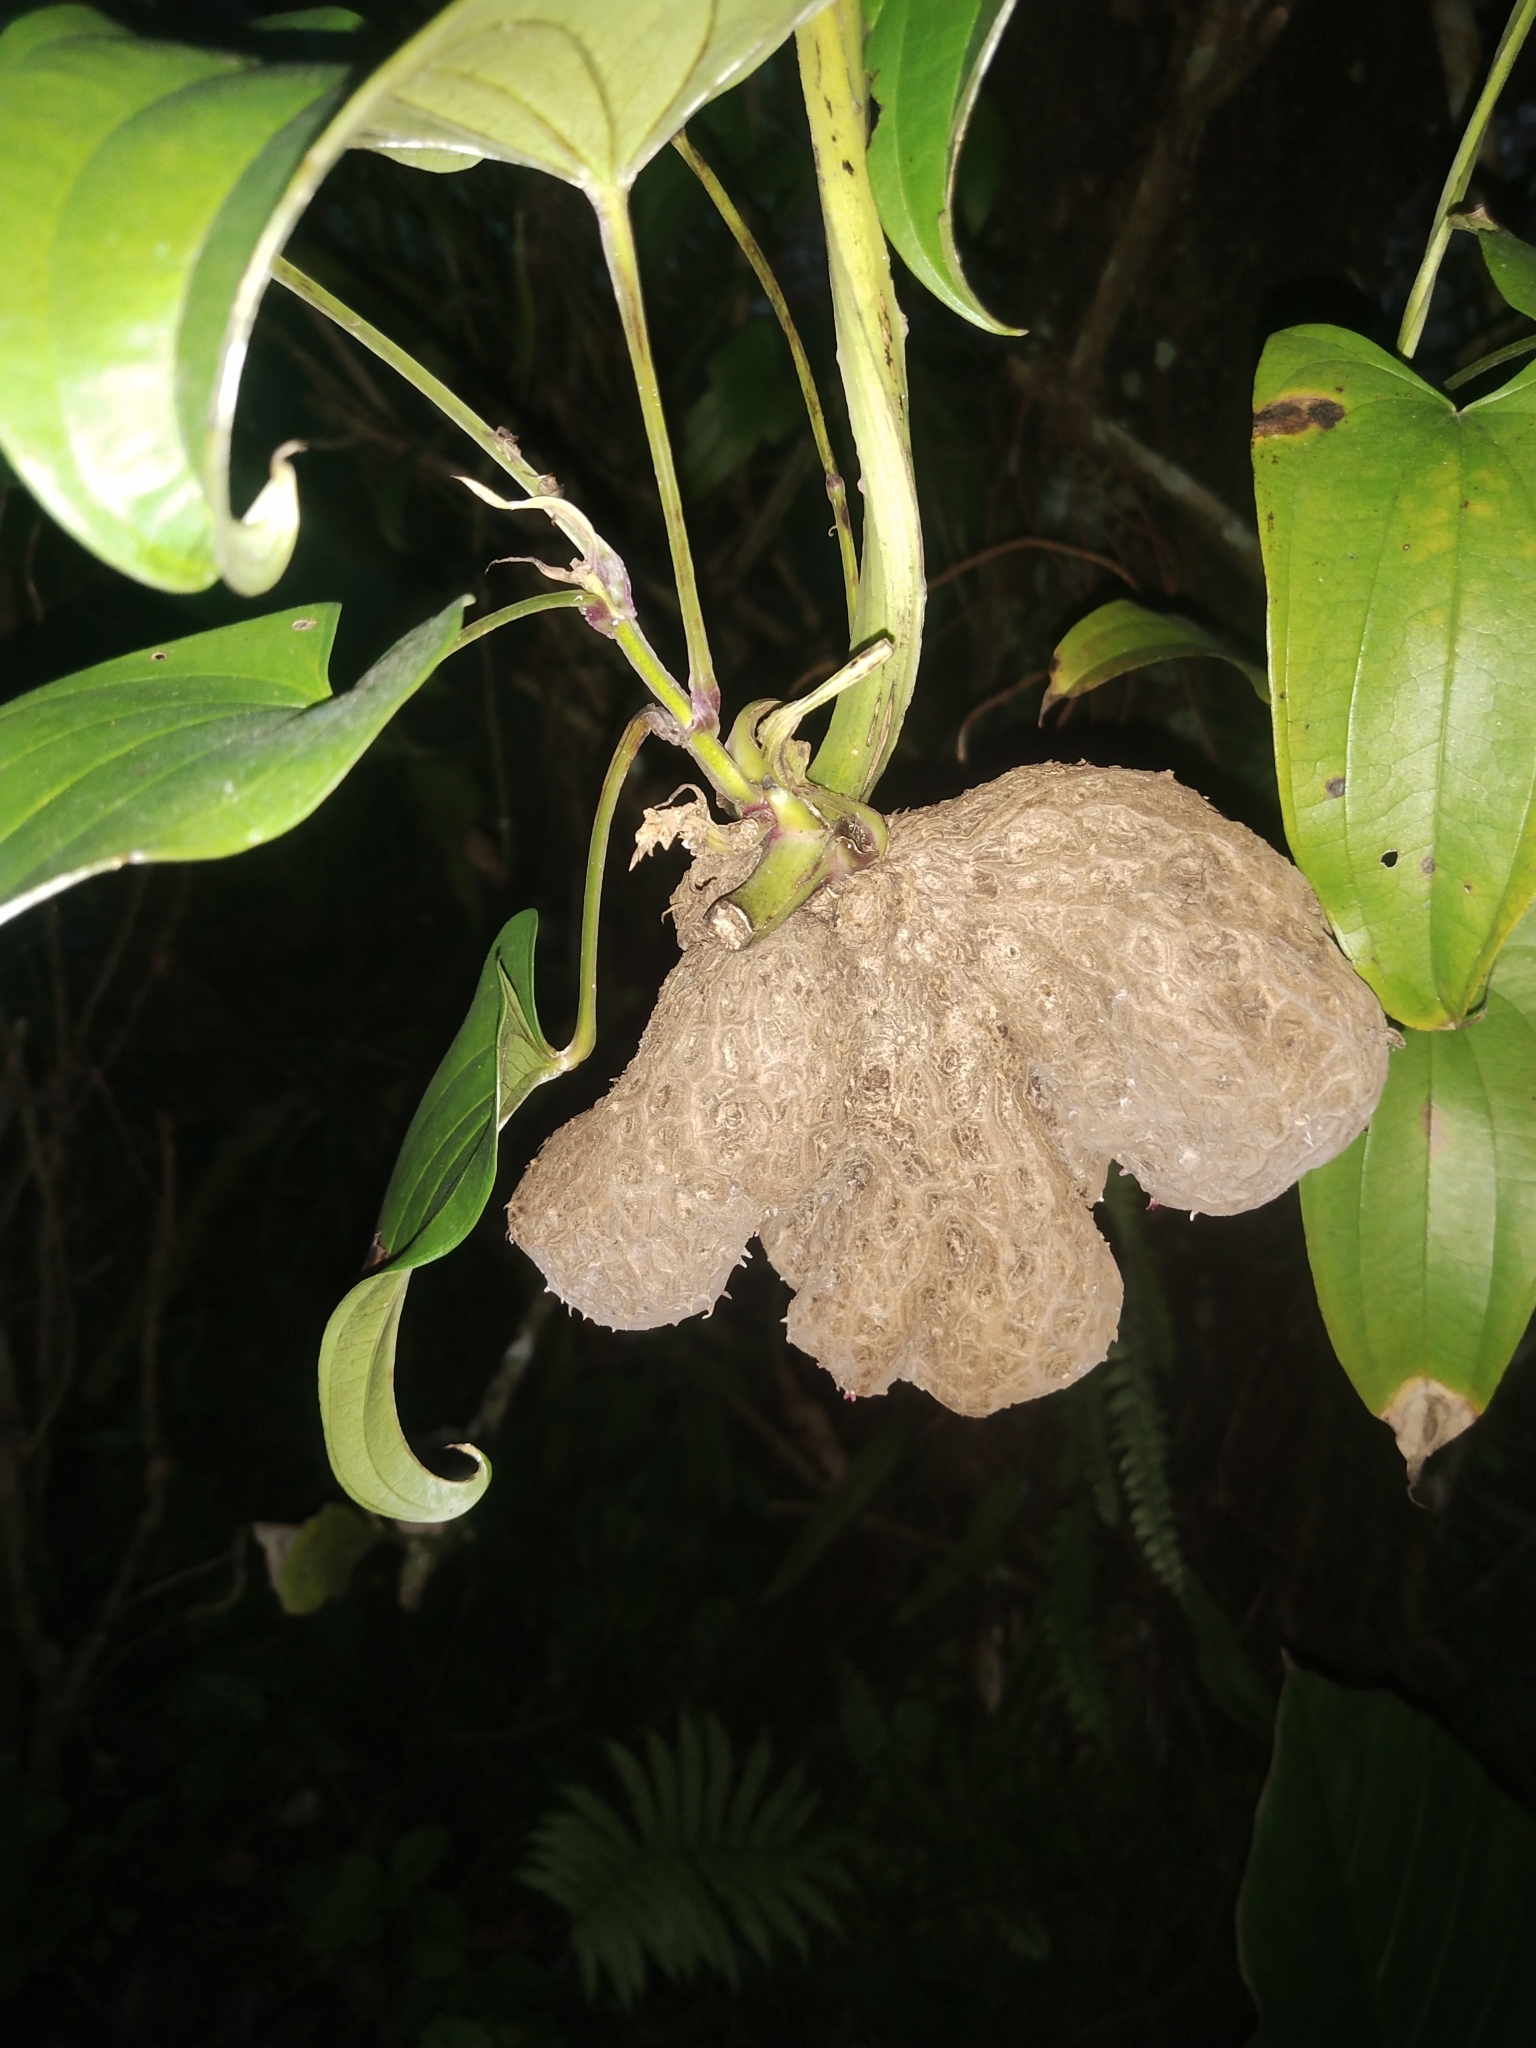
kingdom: Plantae
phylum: Tracheophyta
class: Liliopsida
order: Dioscoreales
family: Dioscoreaceae
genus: Dioscorea
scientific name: Dioscorea alata
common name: Water yam
